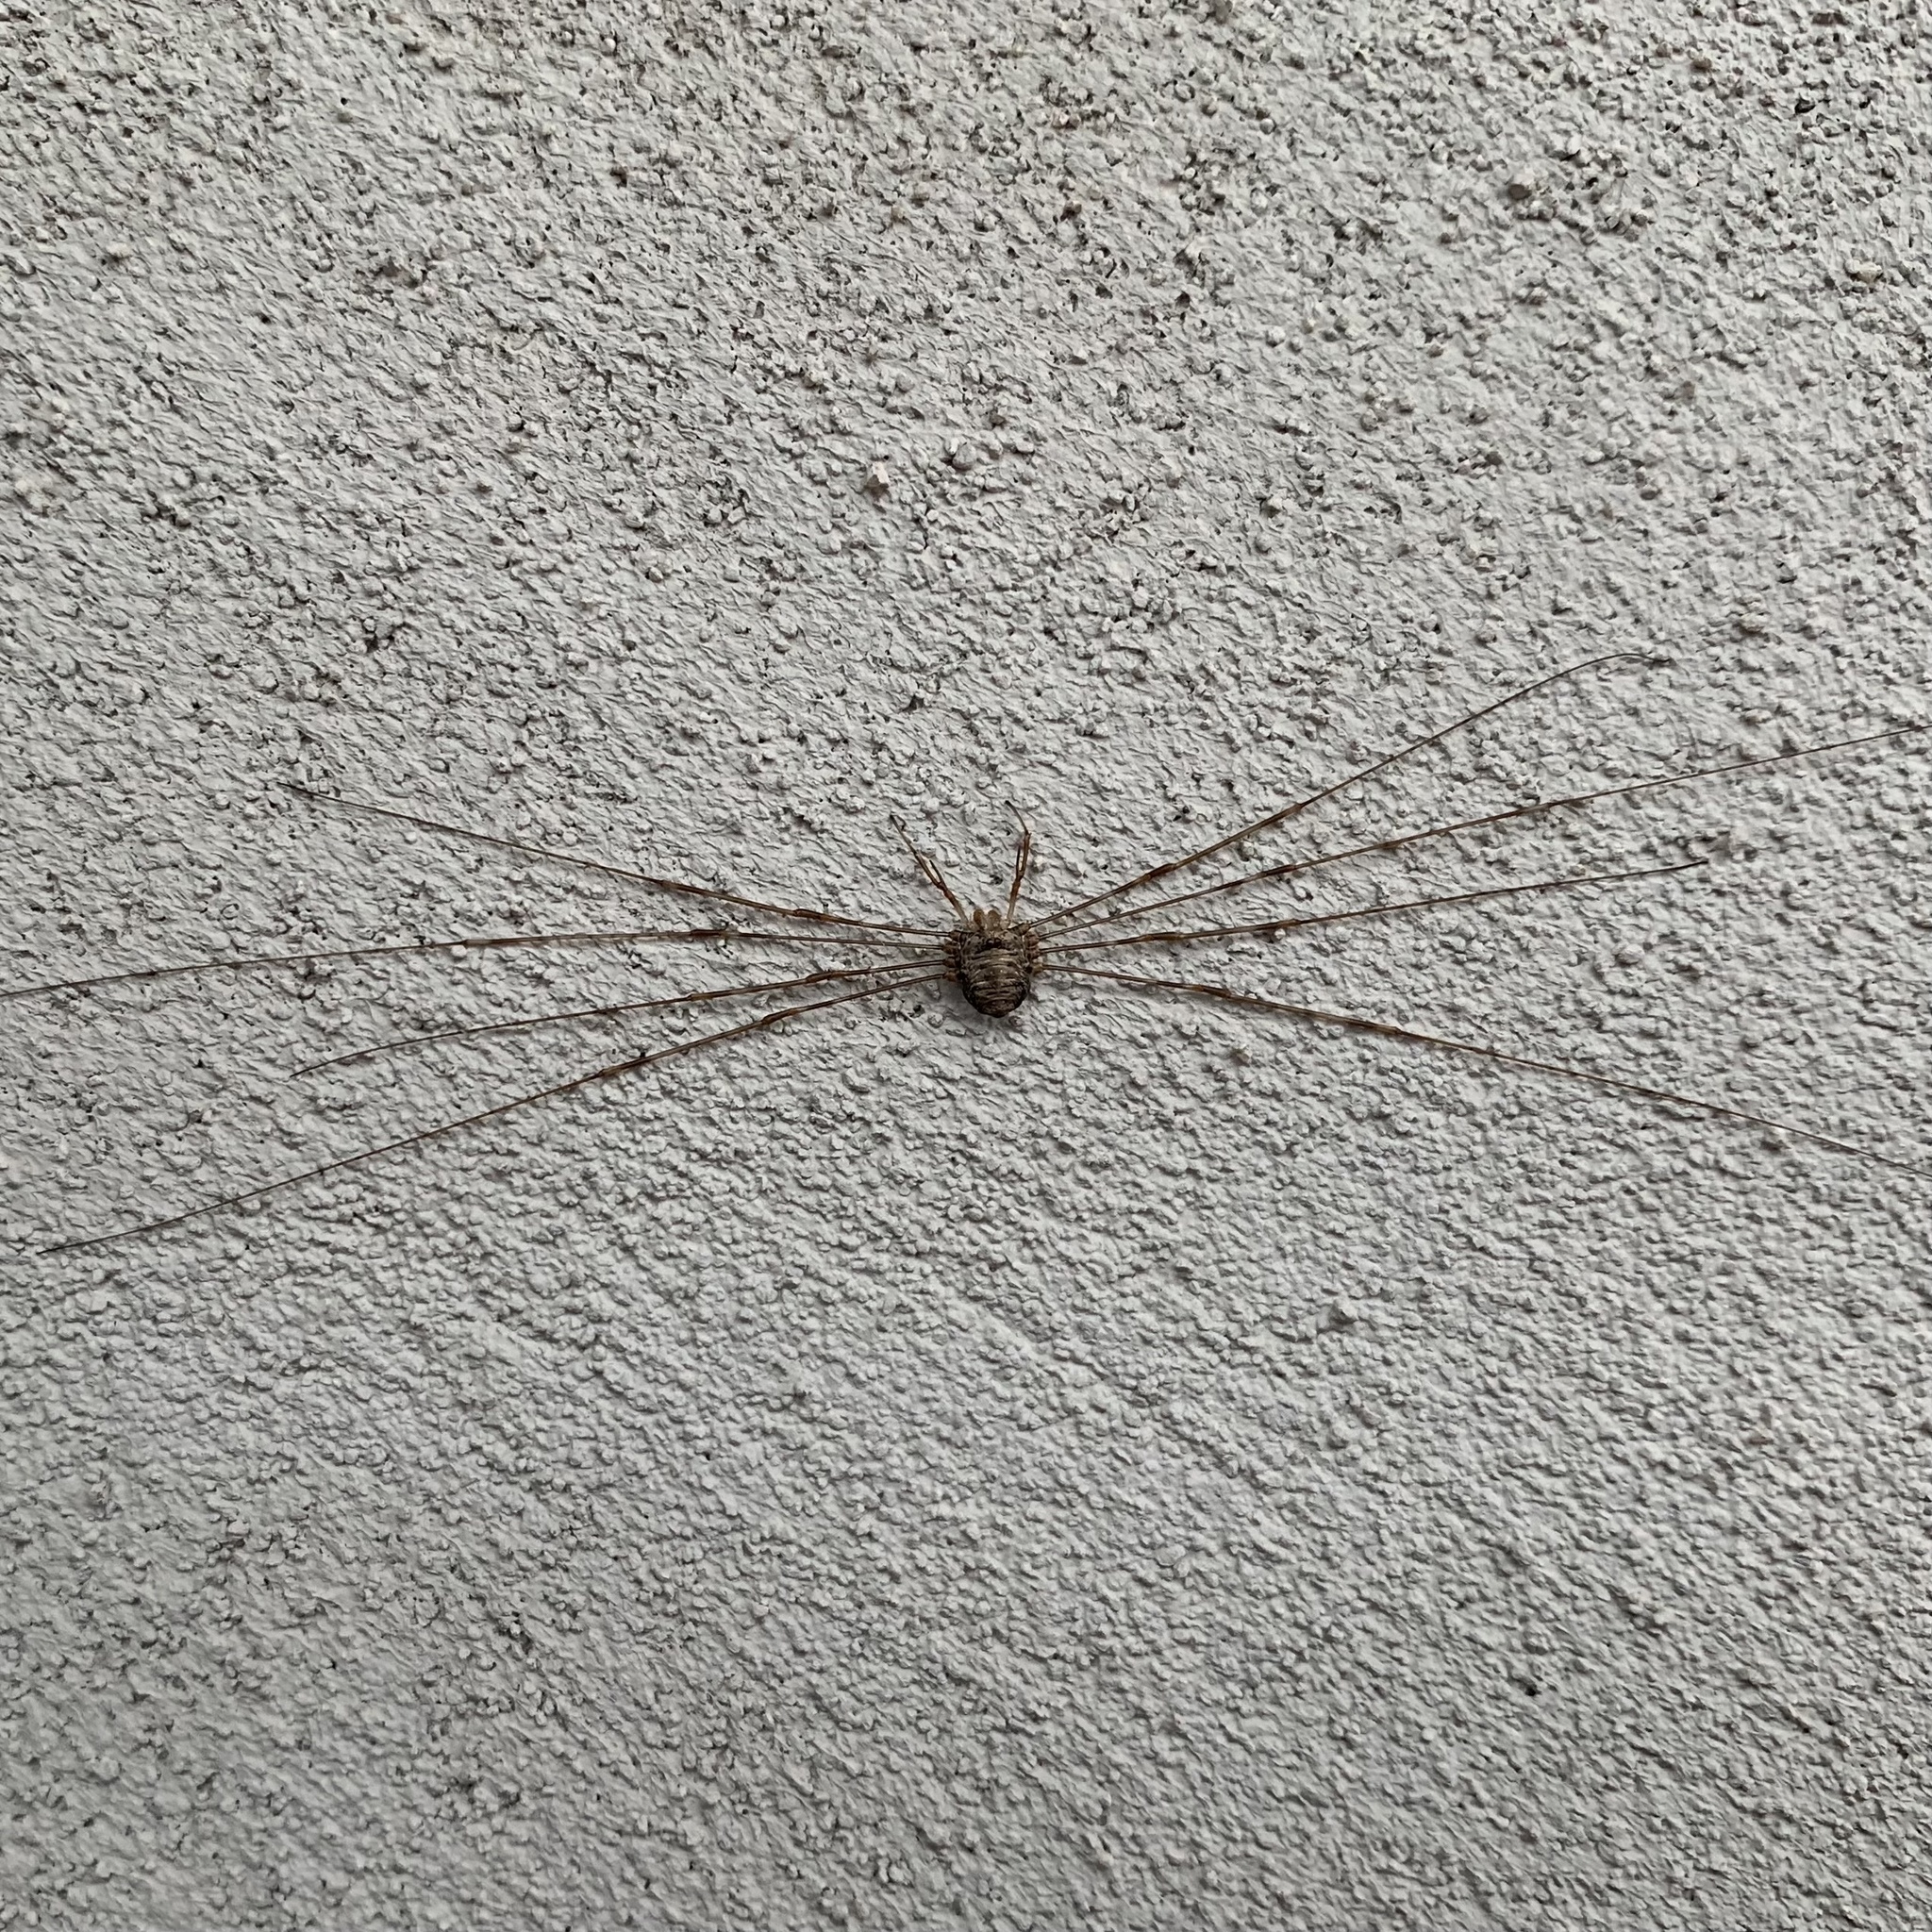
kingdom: Animalia
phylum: Arthropoda
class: Arachnida
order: Opiliones
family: Phalangiidae
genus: Dicranopalpus
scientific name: Dicranopalpus ramosus
